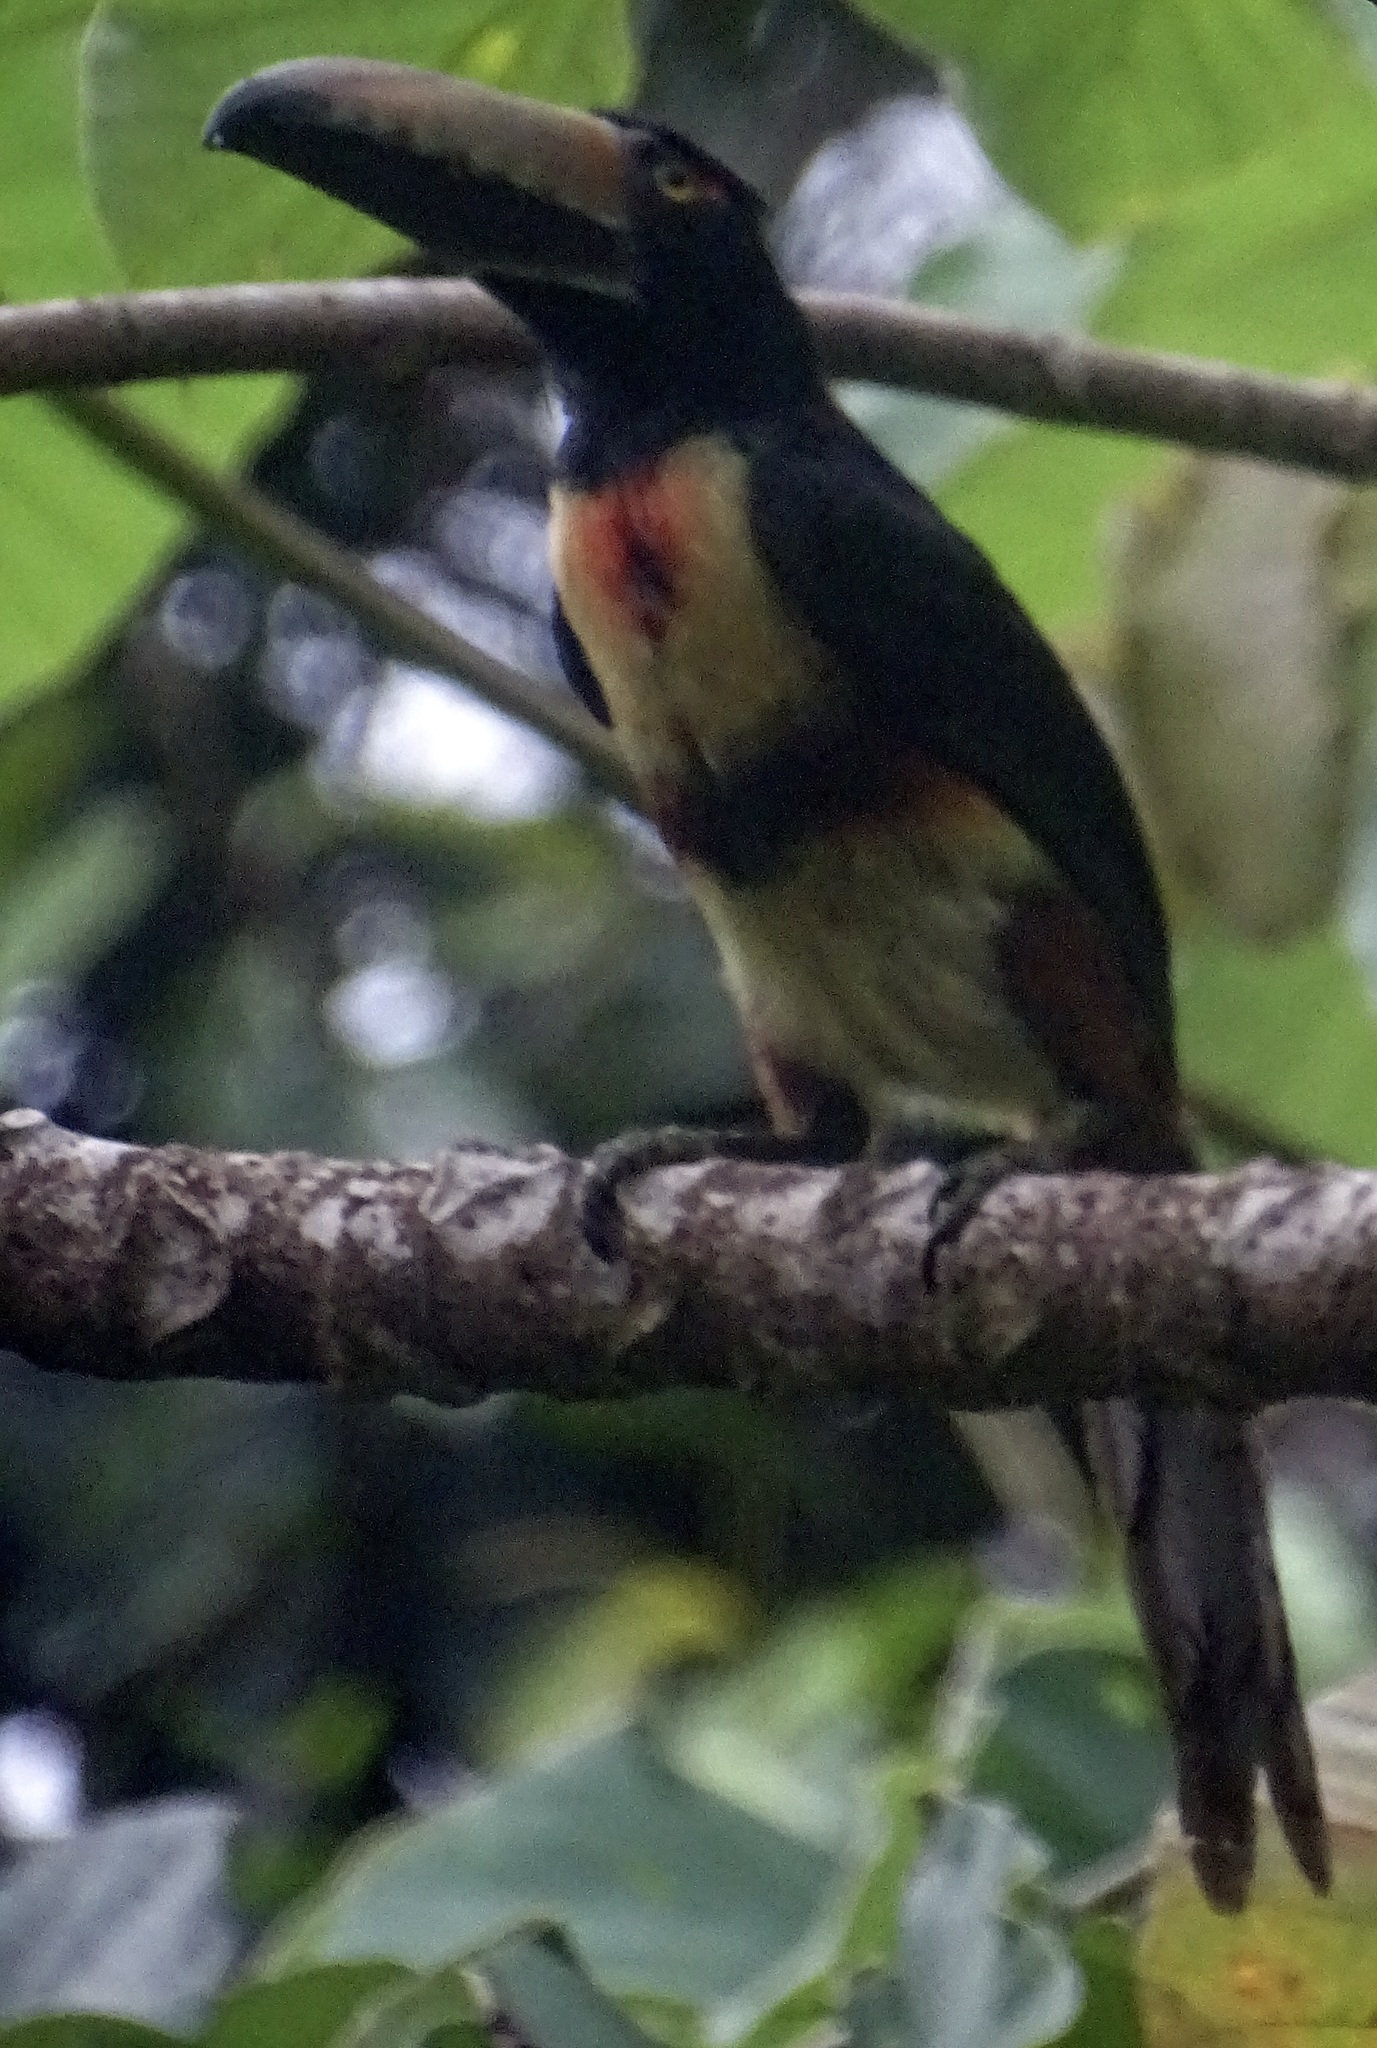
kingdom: Animalia
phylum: Chordata
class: Aves
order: Piciformes
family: Ramphastidae
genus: Pteroglossus
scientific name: Pteroglossus torquatus
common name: Collared aracari
